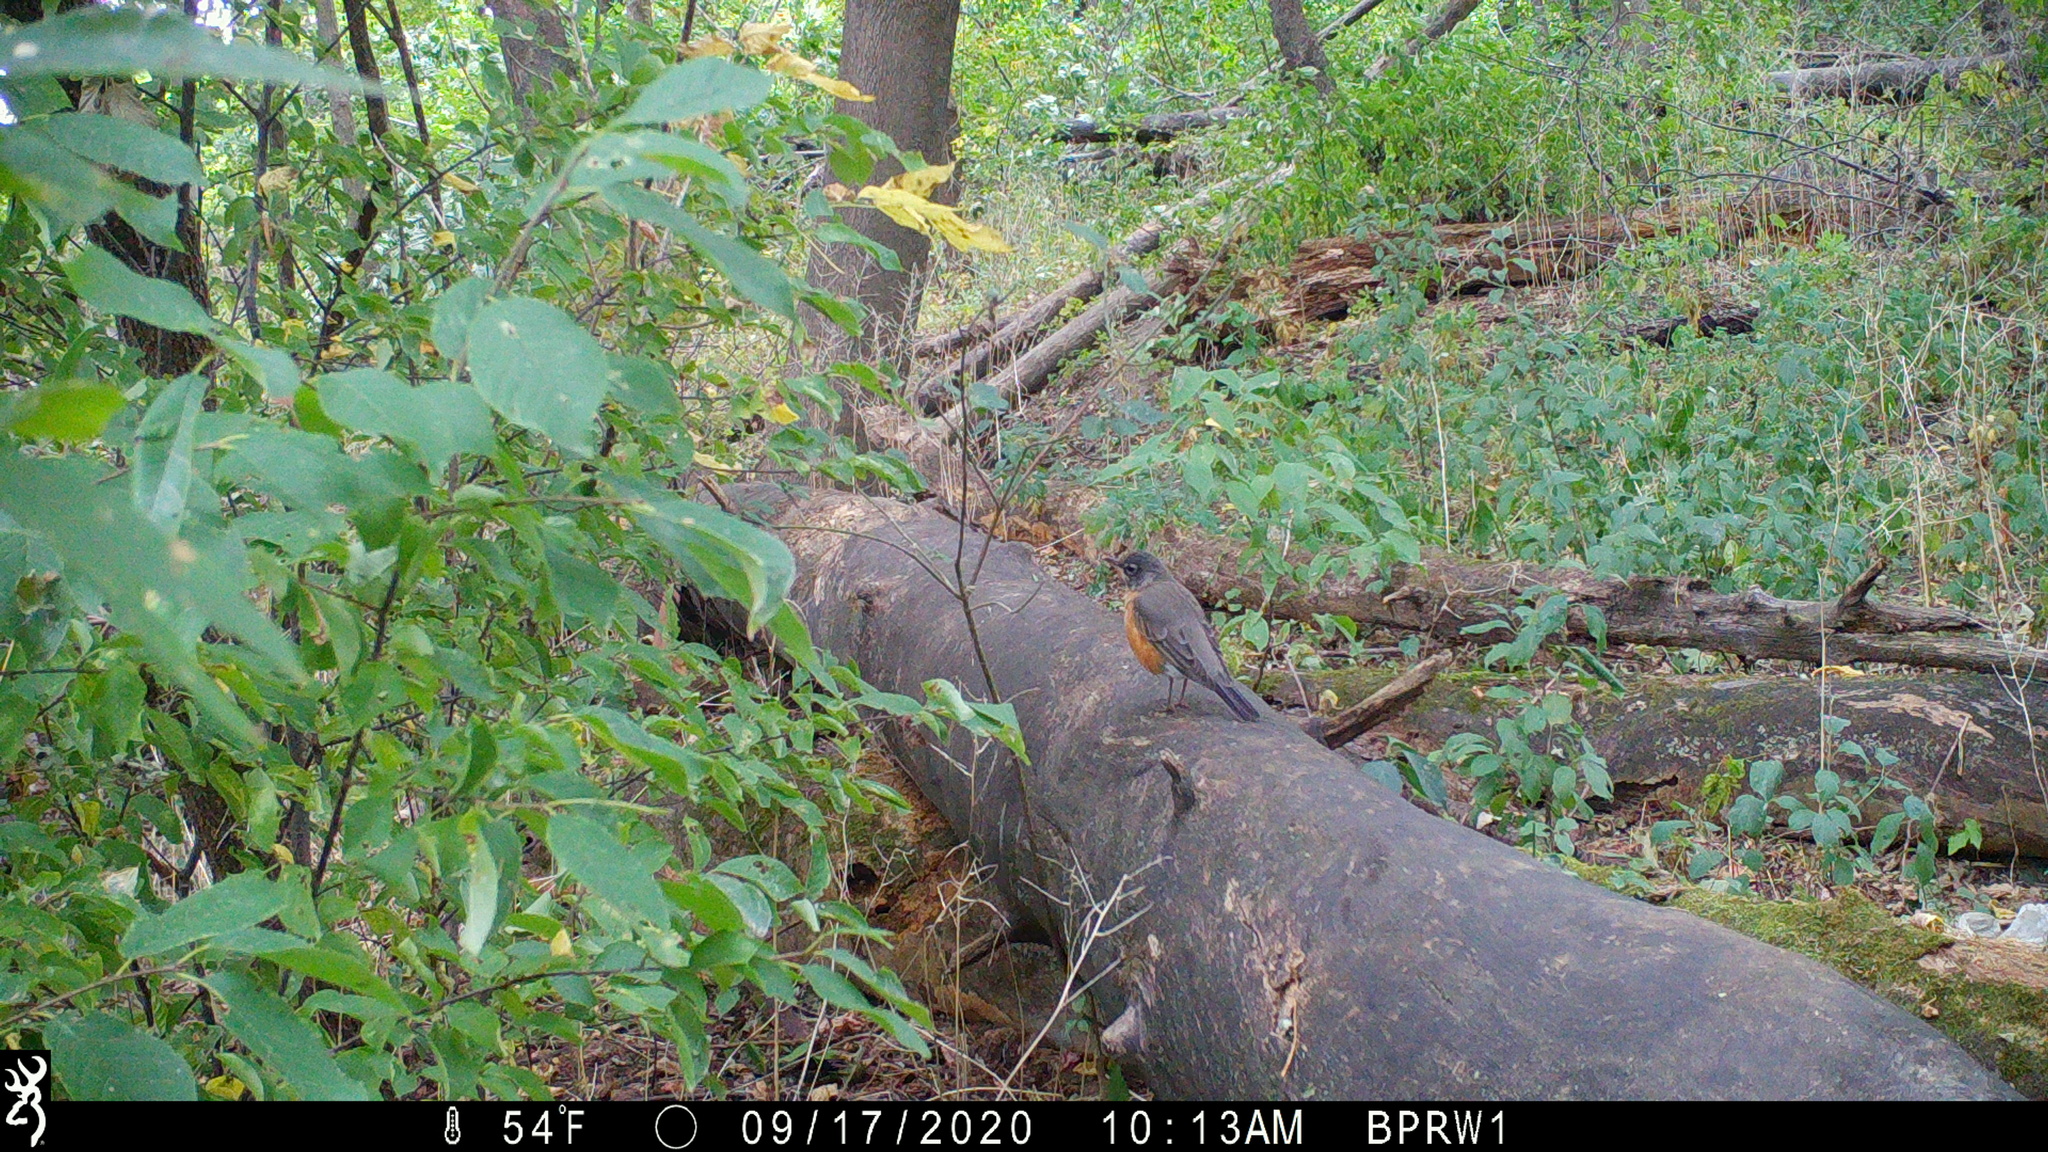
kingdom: Animalia
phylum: Chordata
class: Aves
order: Passeriformes
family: Turdidae
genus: Turdus
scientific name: Turdus migratorius
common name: American robin
